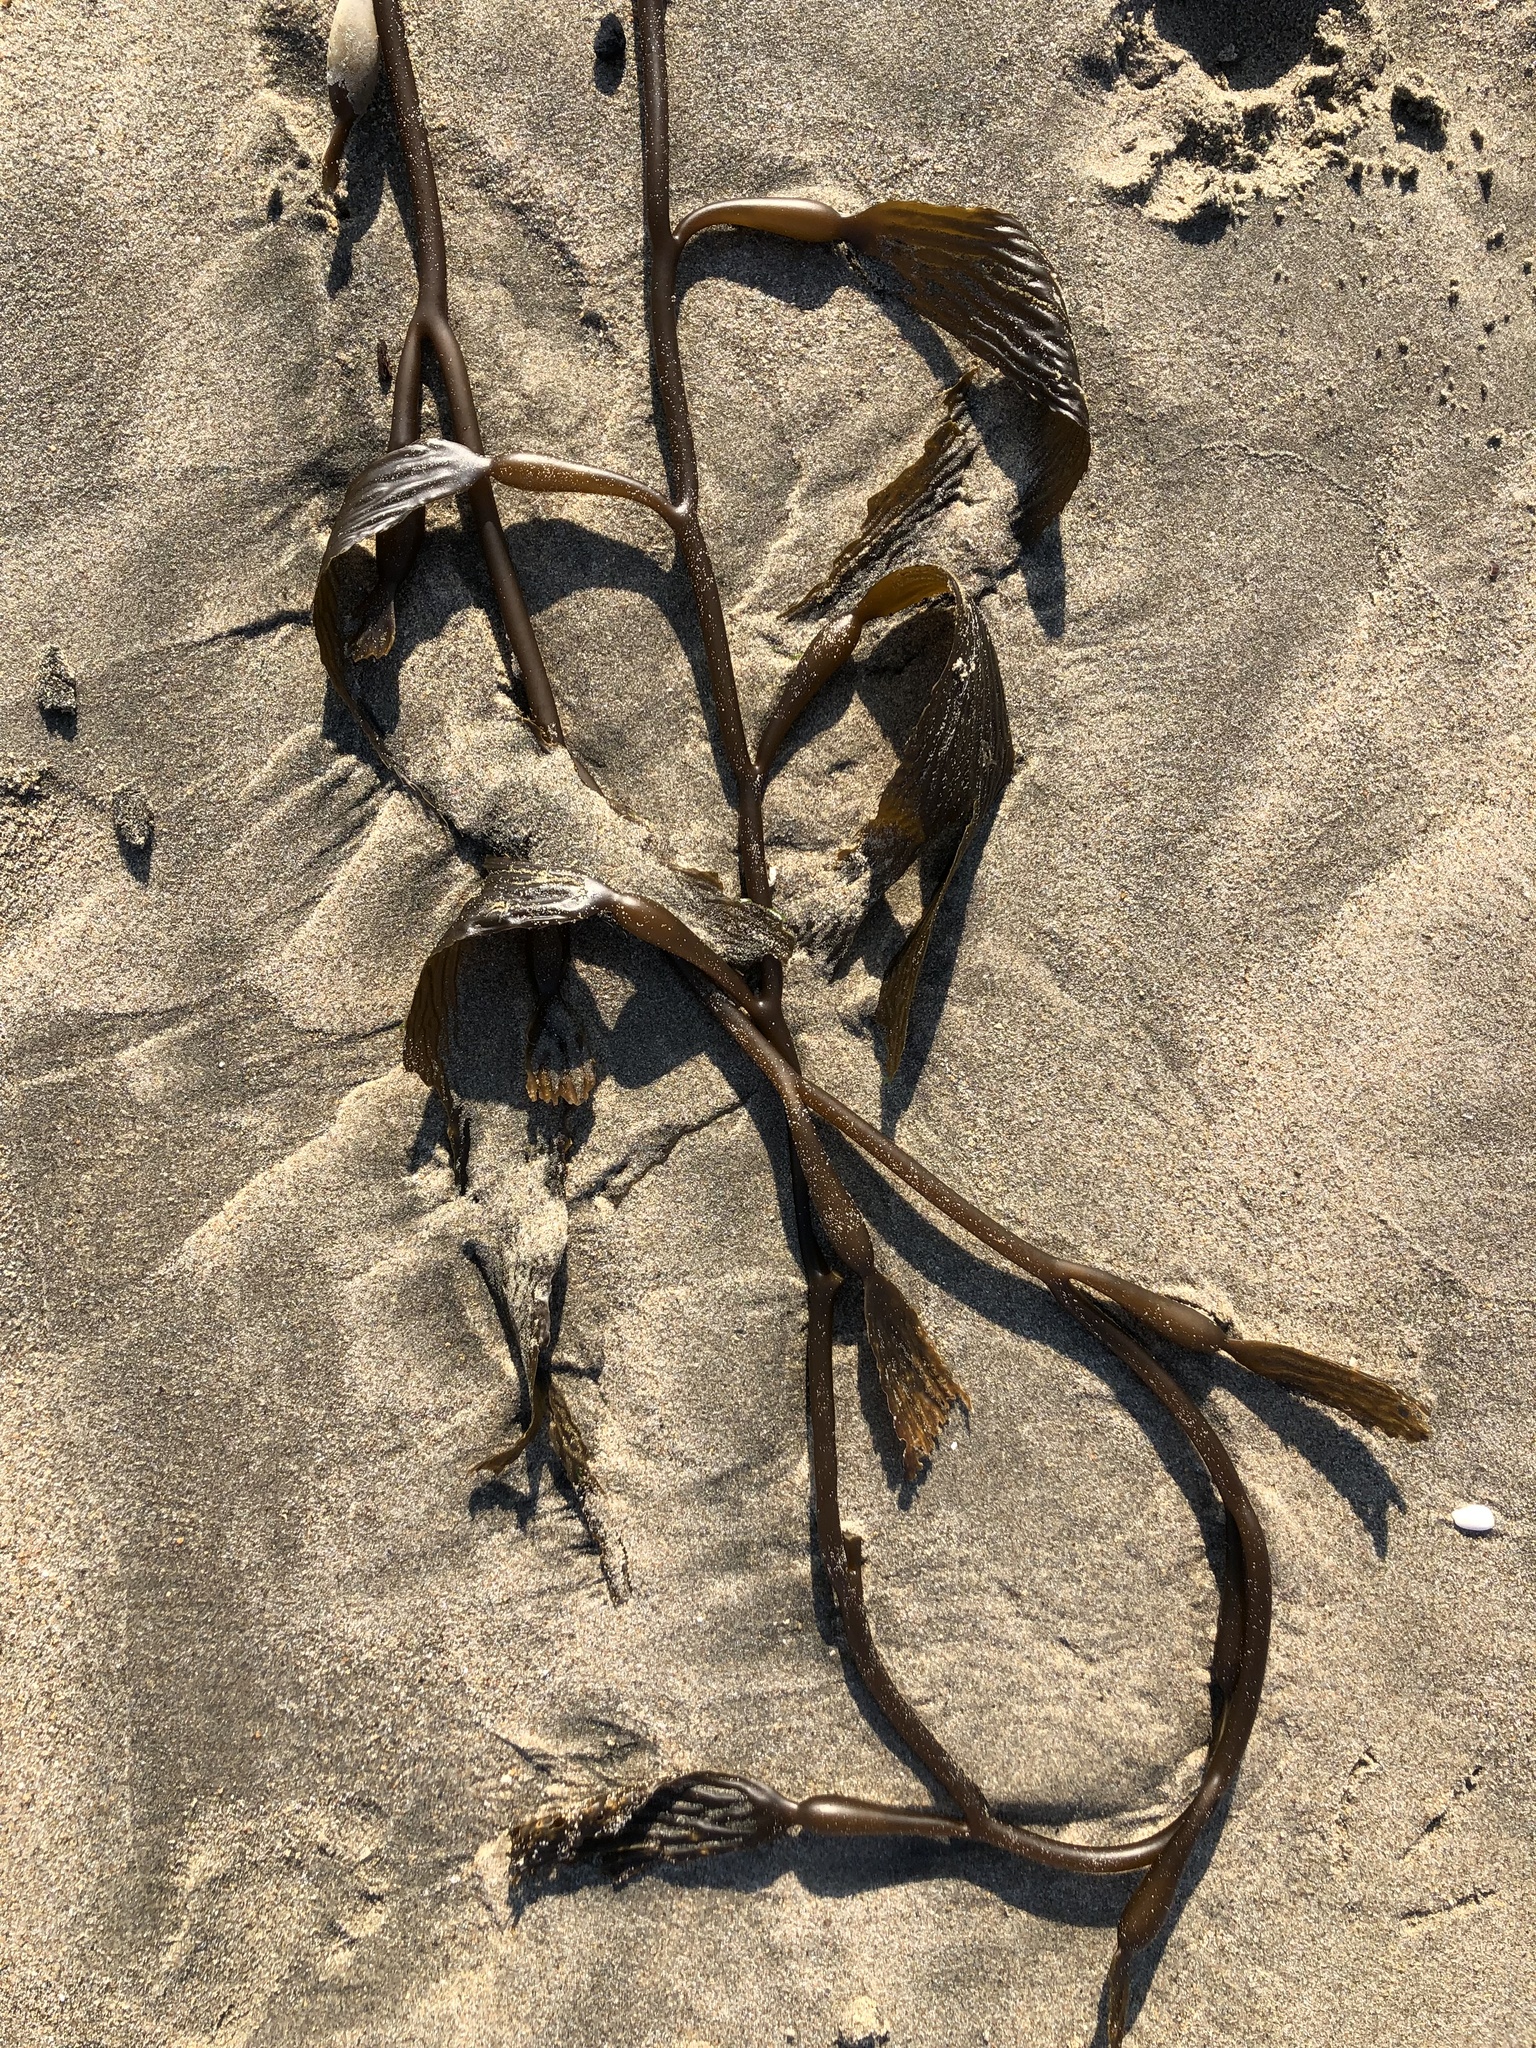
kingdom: Chromista
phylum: Ochrophyta
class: Phaeophyceae
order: Laminariales
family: Laminariaceae
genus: Macrocystis
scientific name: Macrocystis pyrifera
